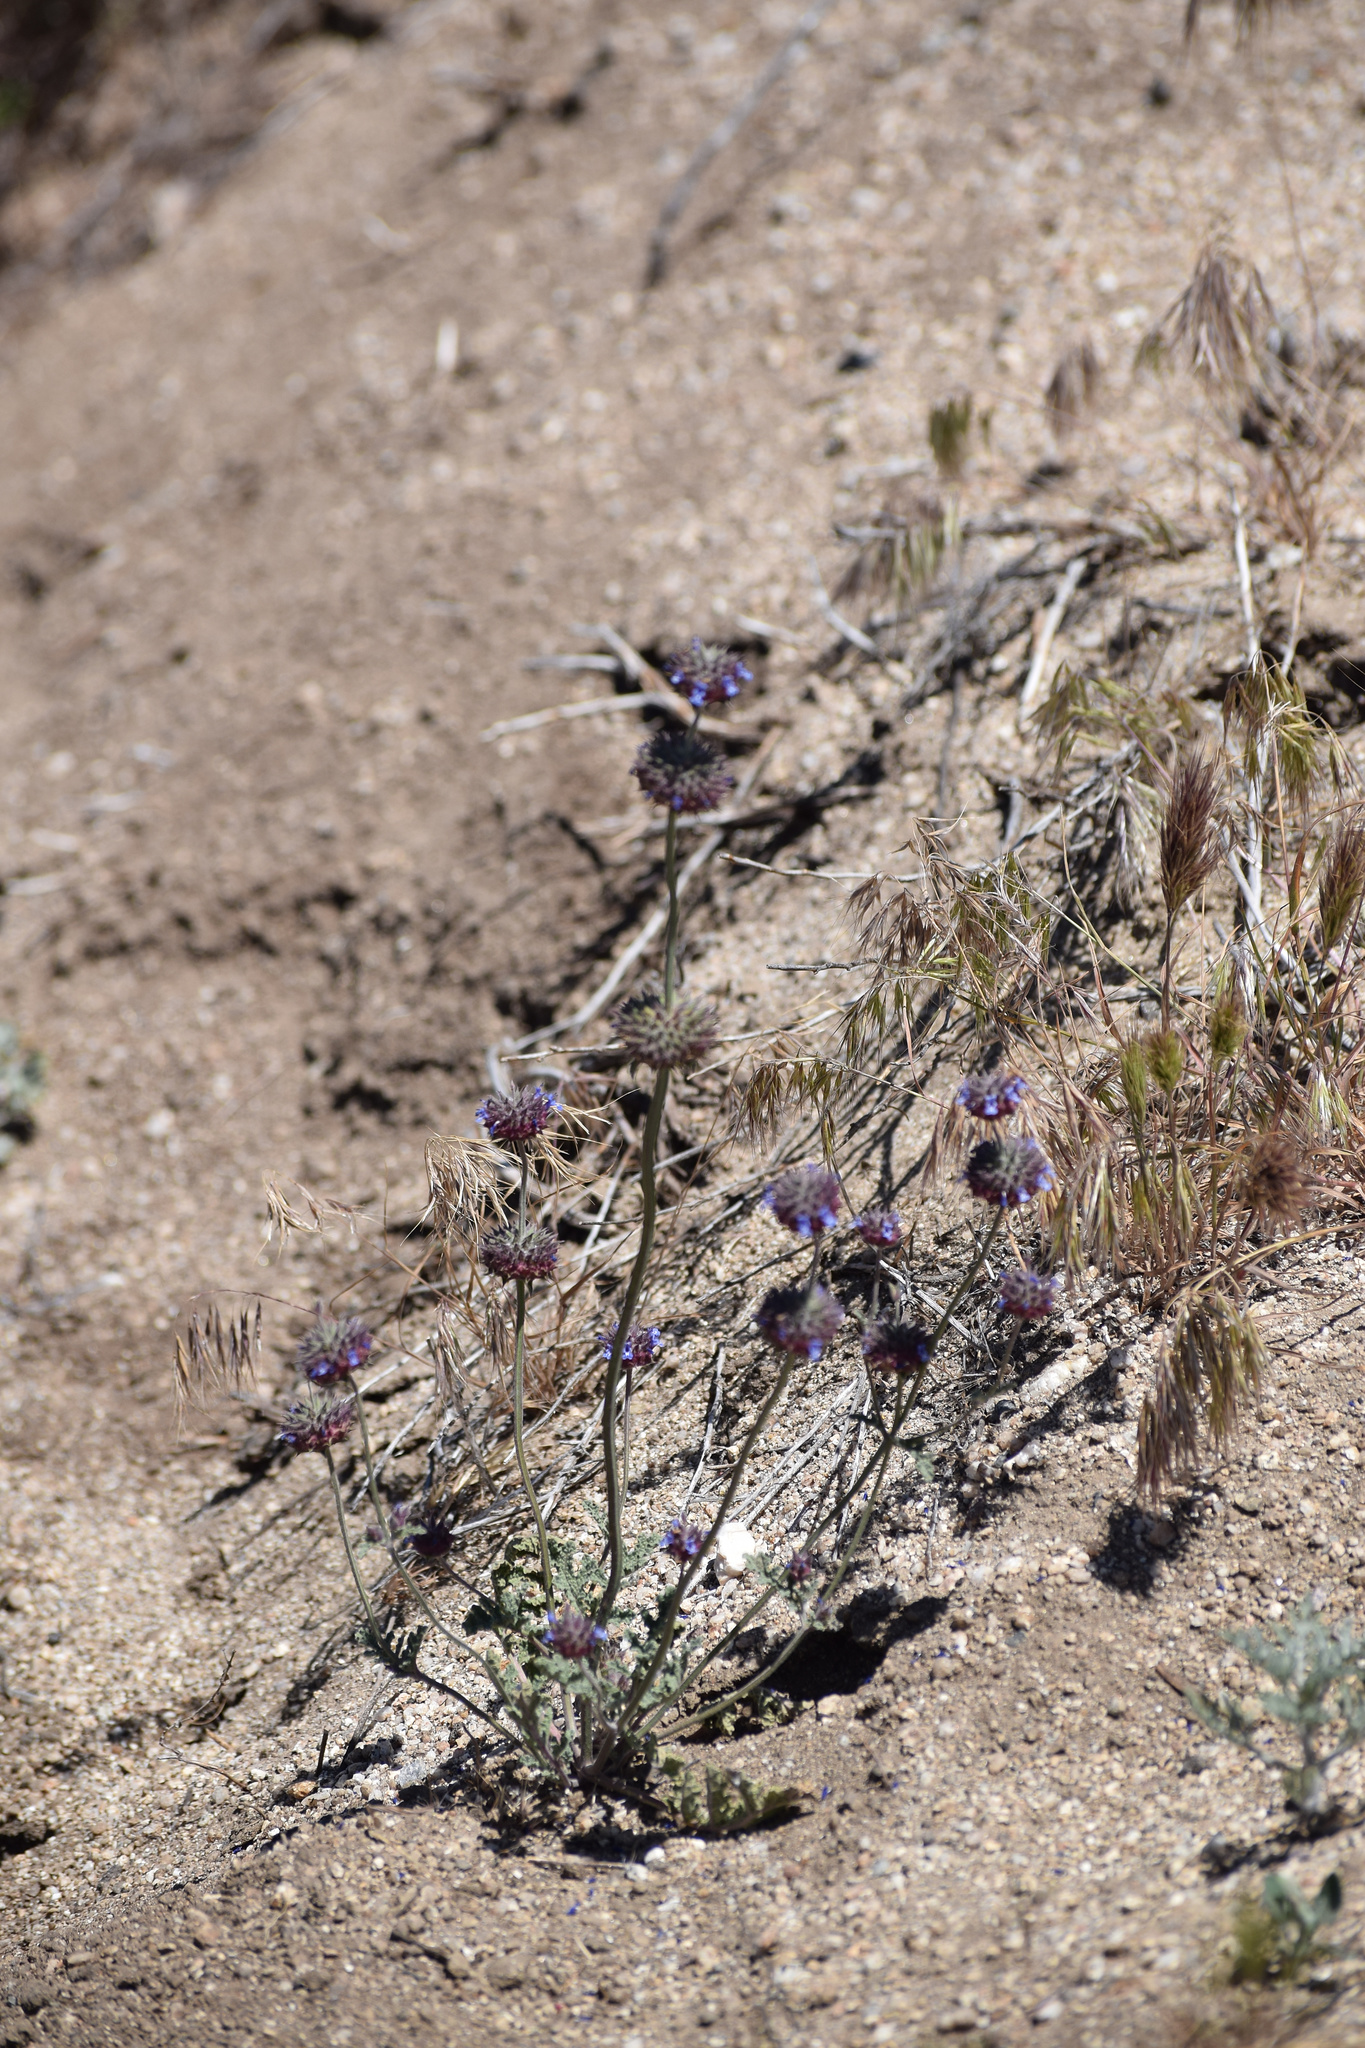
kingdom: Plantae
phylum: Tracheophyta
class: Magnoliopsida
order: Lamiales
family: Lamiaceae
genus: Salvia
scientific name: Salvia columbariae
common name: Chia
